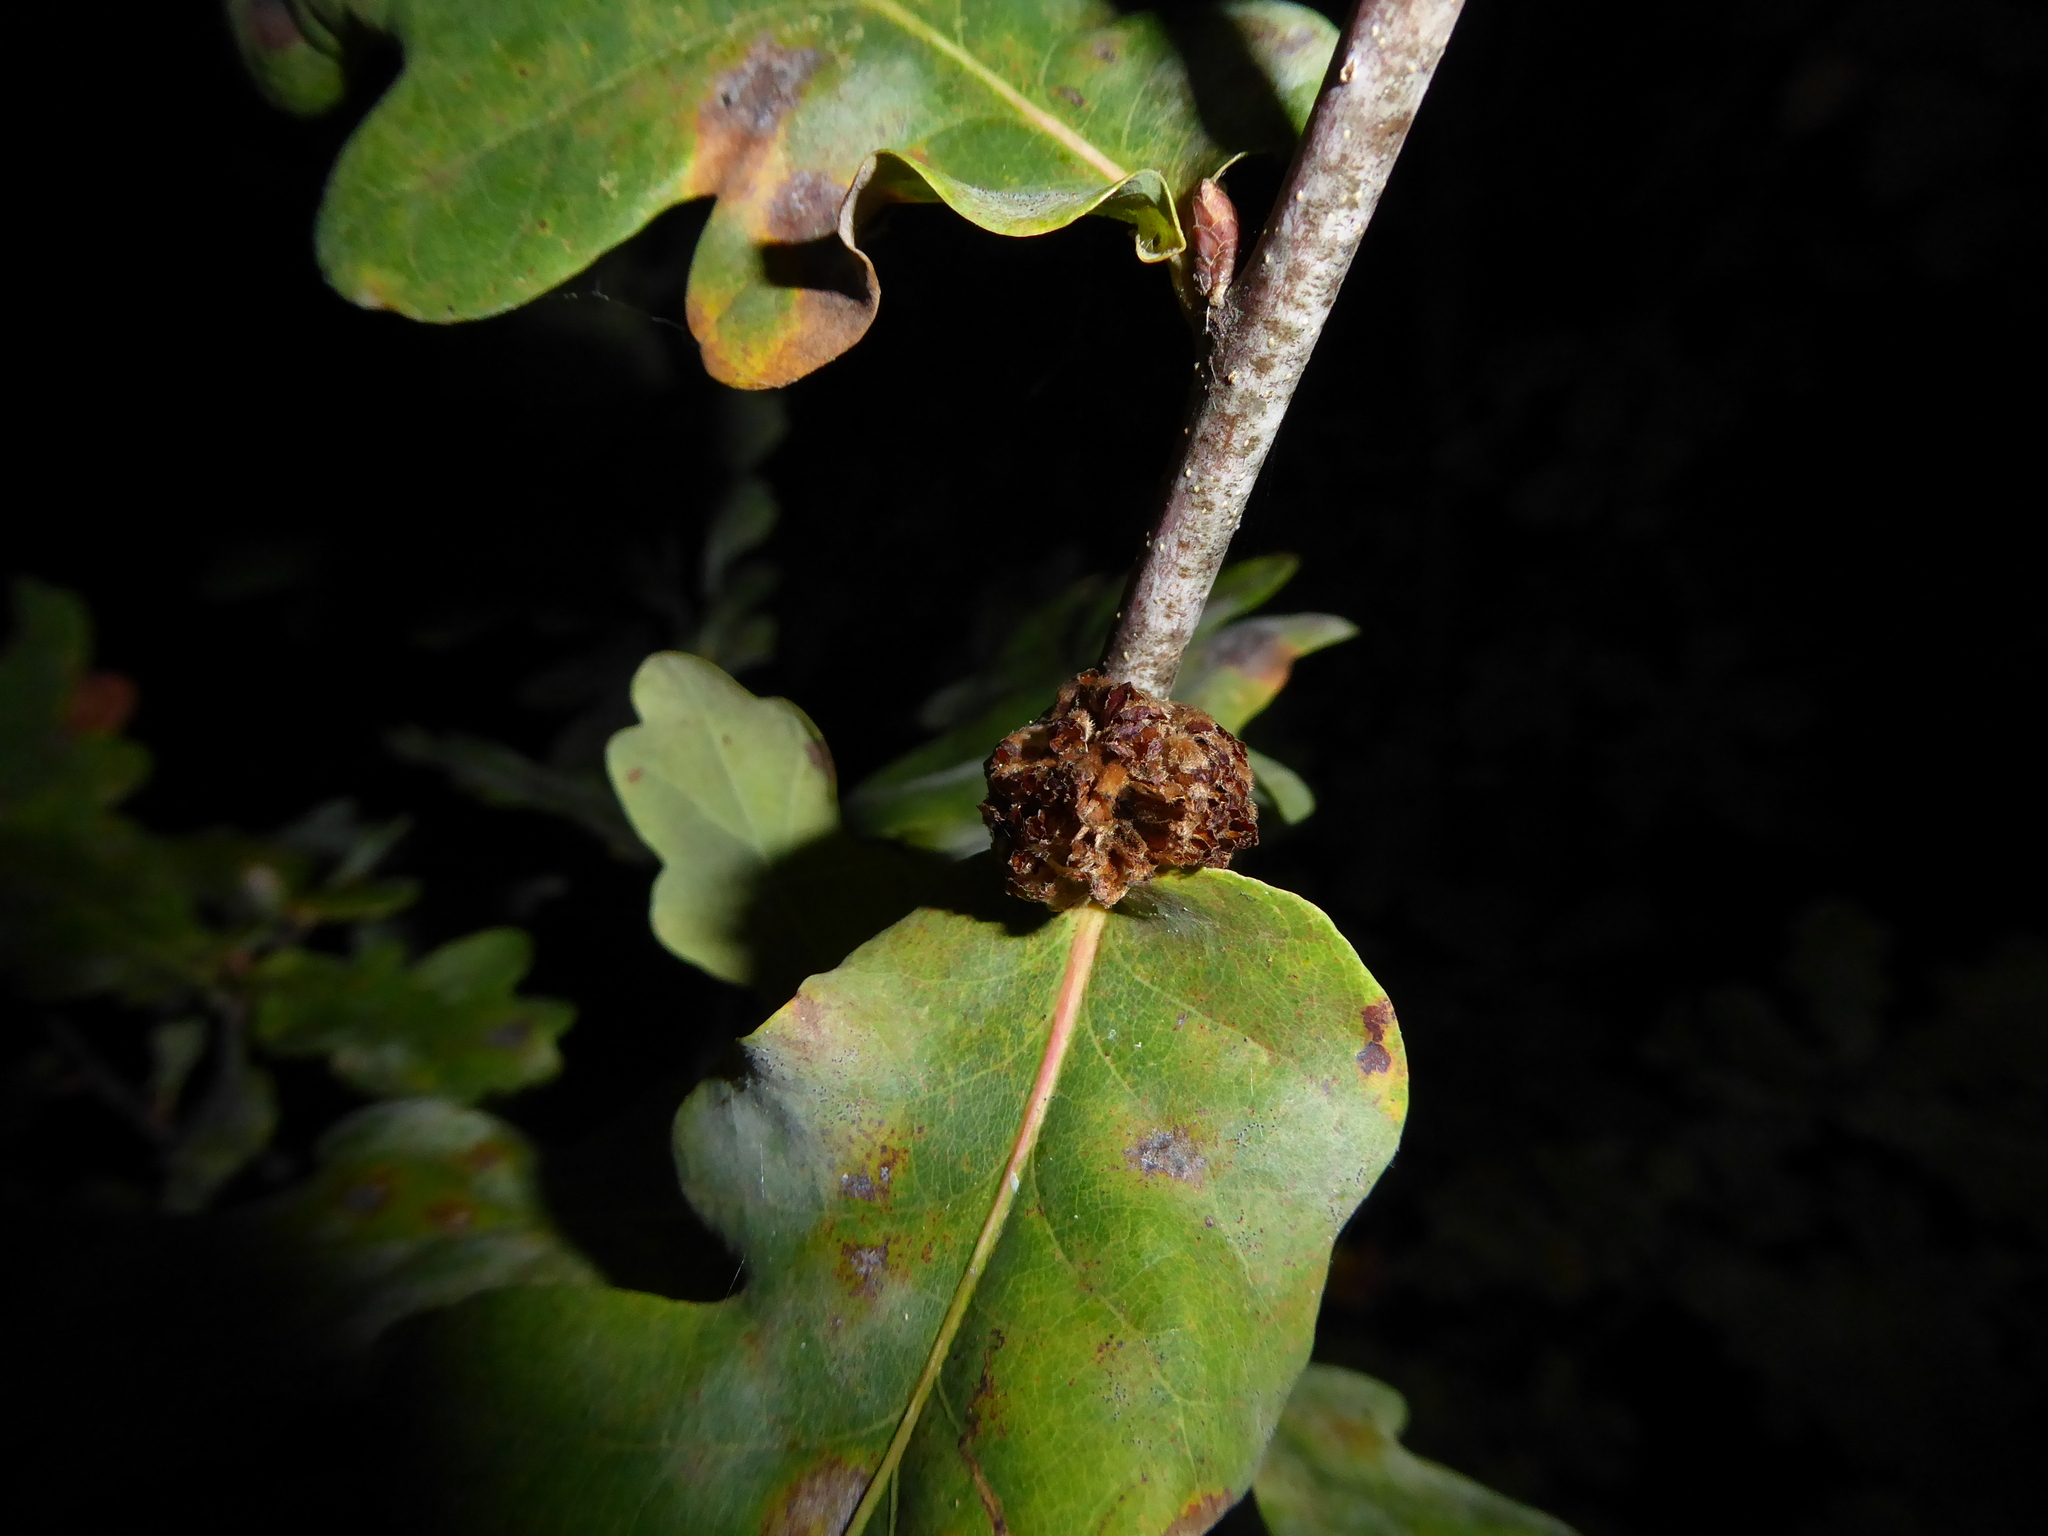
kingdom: Animalia
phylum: Arthropoda
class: Insecta
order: Hymenoptera
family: Cynipidae
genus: Andricus
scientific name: Andricus foecundatrix
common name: Artichoke gall
